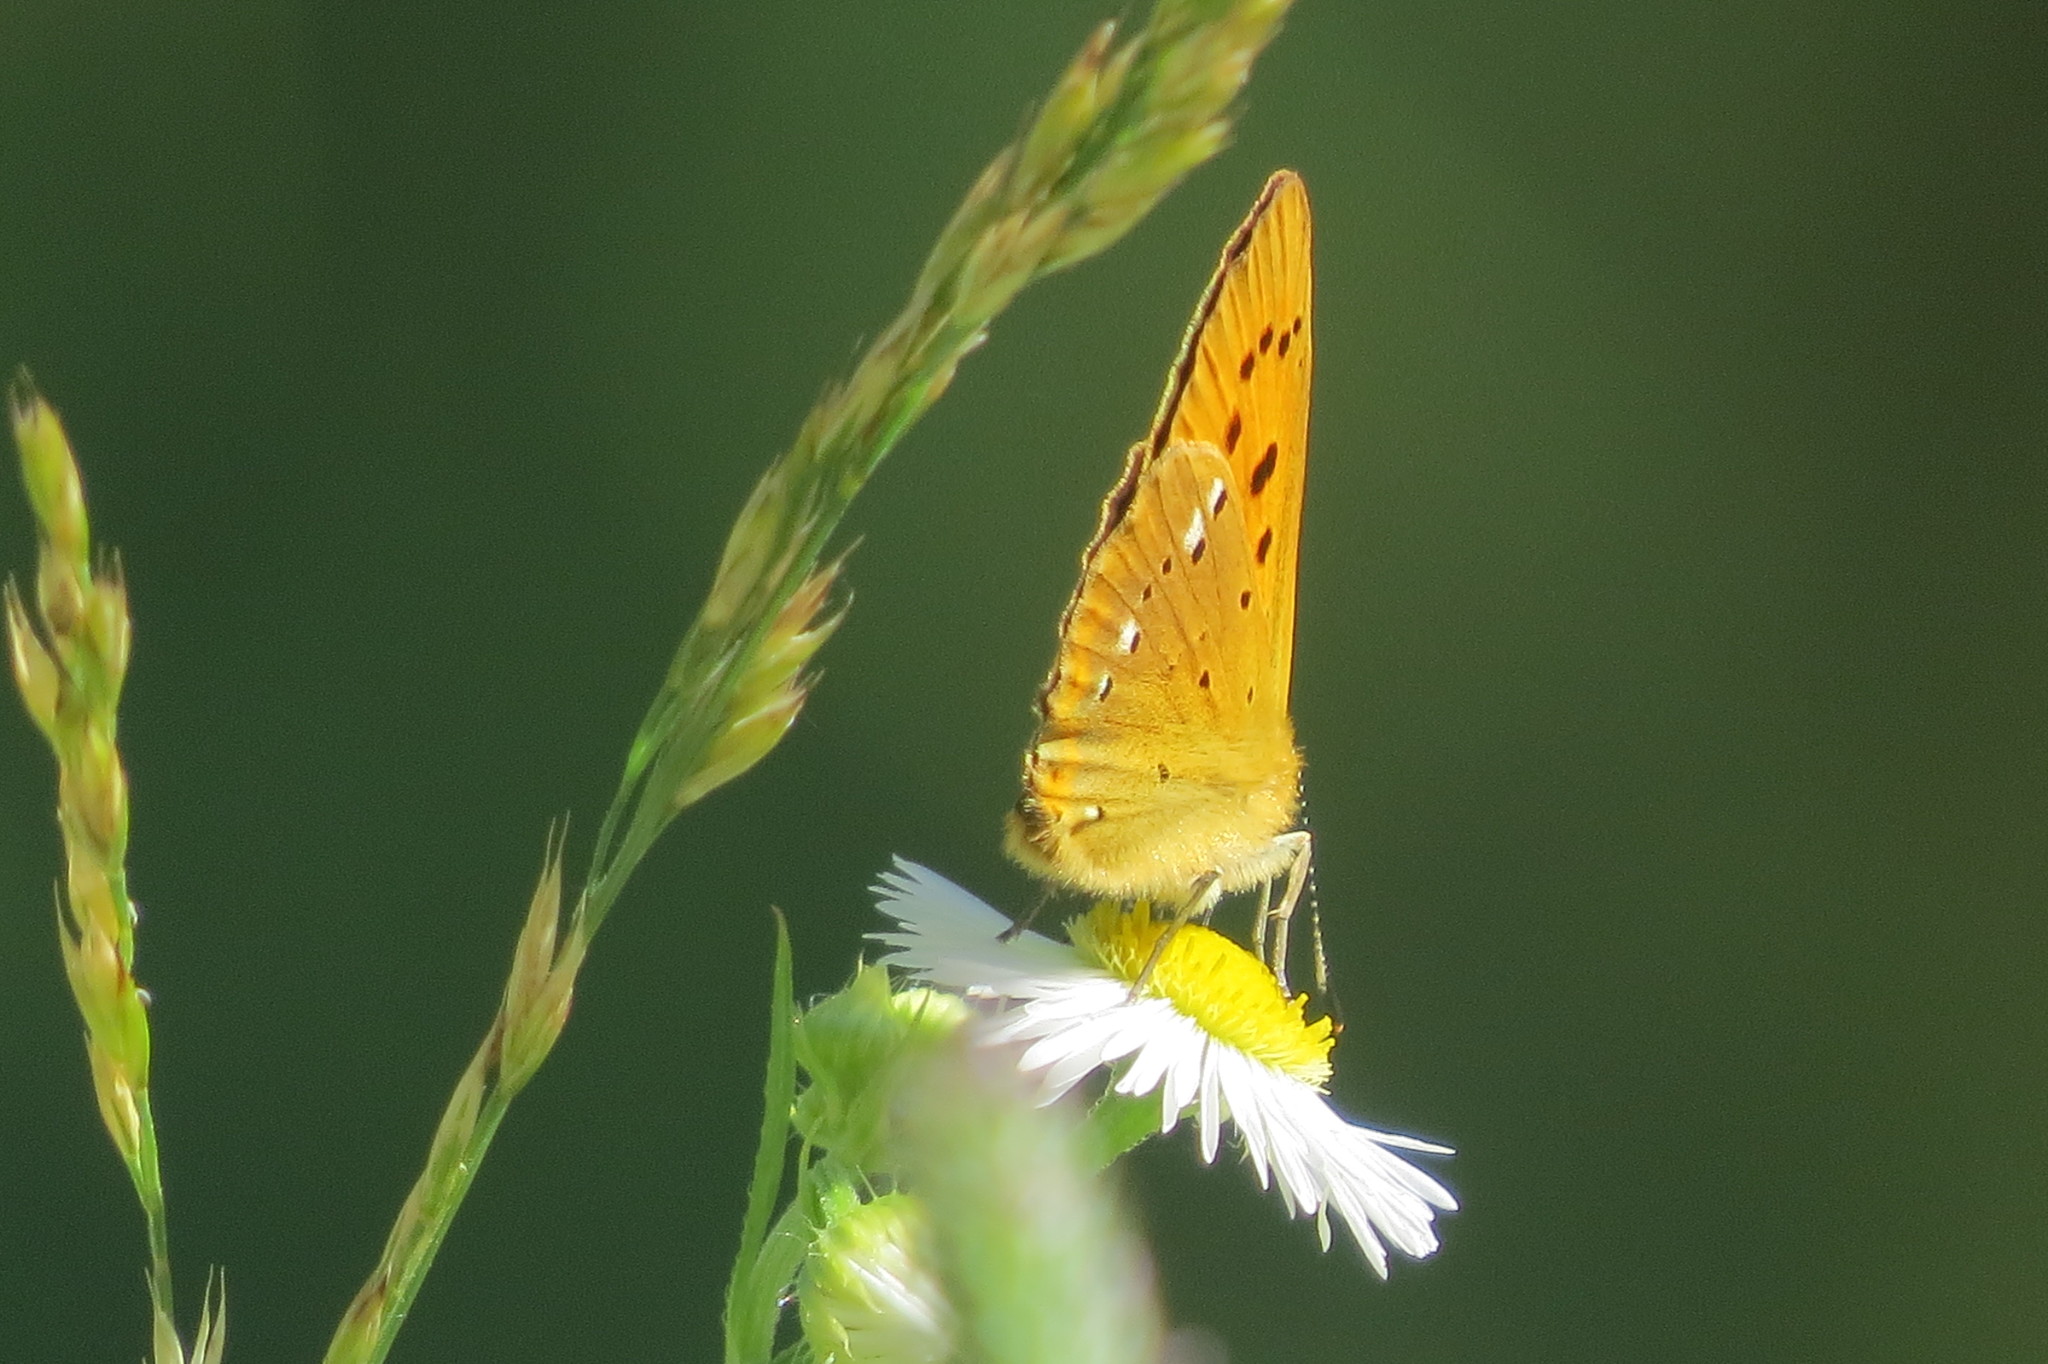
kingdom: Animalia
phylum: Arthropoda
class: Insecta
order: Lepidoptera
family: Lycaenidae
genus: Lycaena
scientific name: Lycaena virgaureae
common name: Scarce copper
